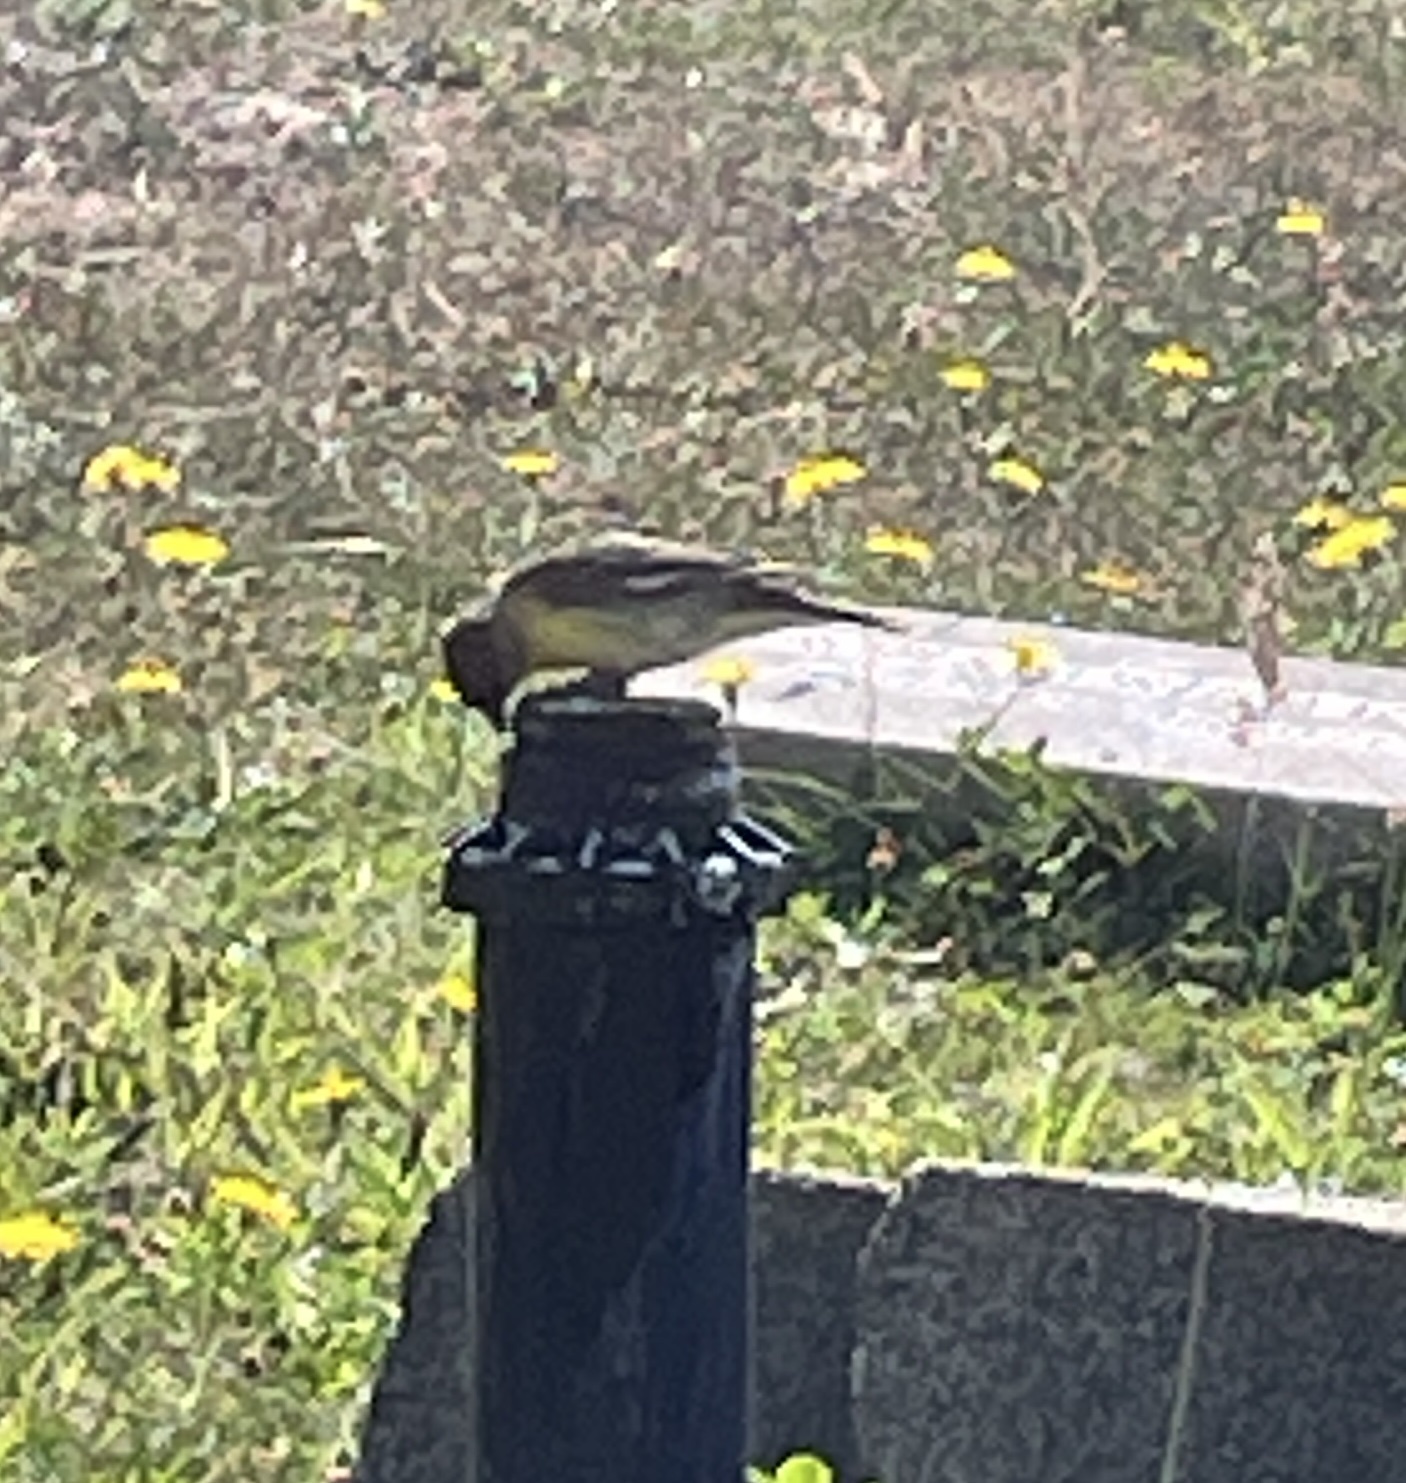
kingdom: Animalia
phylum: Chordata
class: Aves
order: Passeriformes
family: Fringillidae
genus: Spinus
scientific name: Spinus psaltria
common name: Lesser goldfinch
